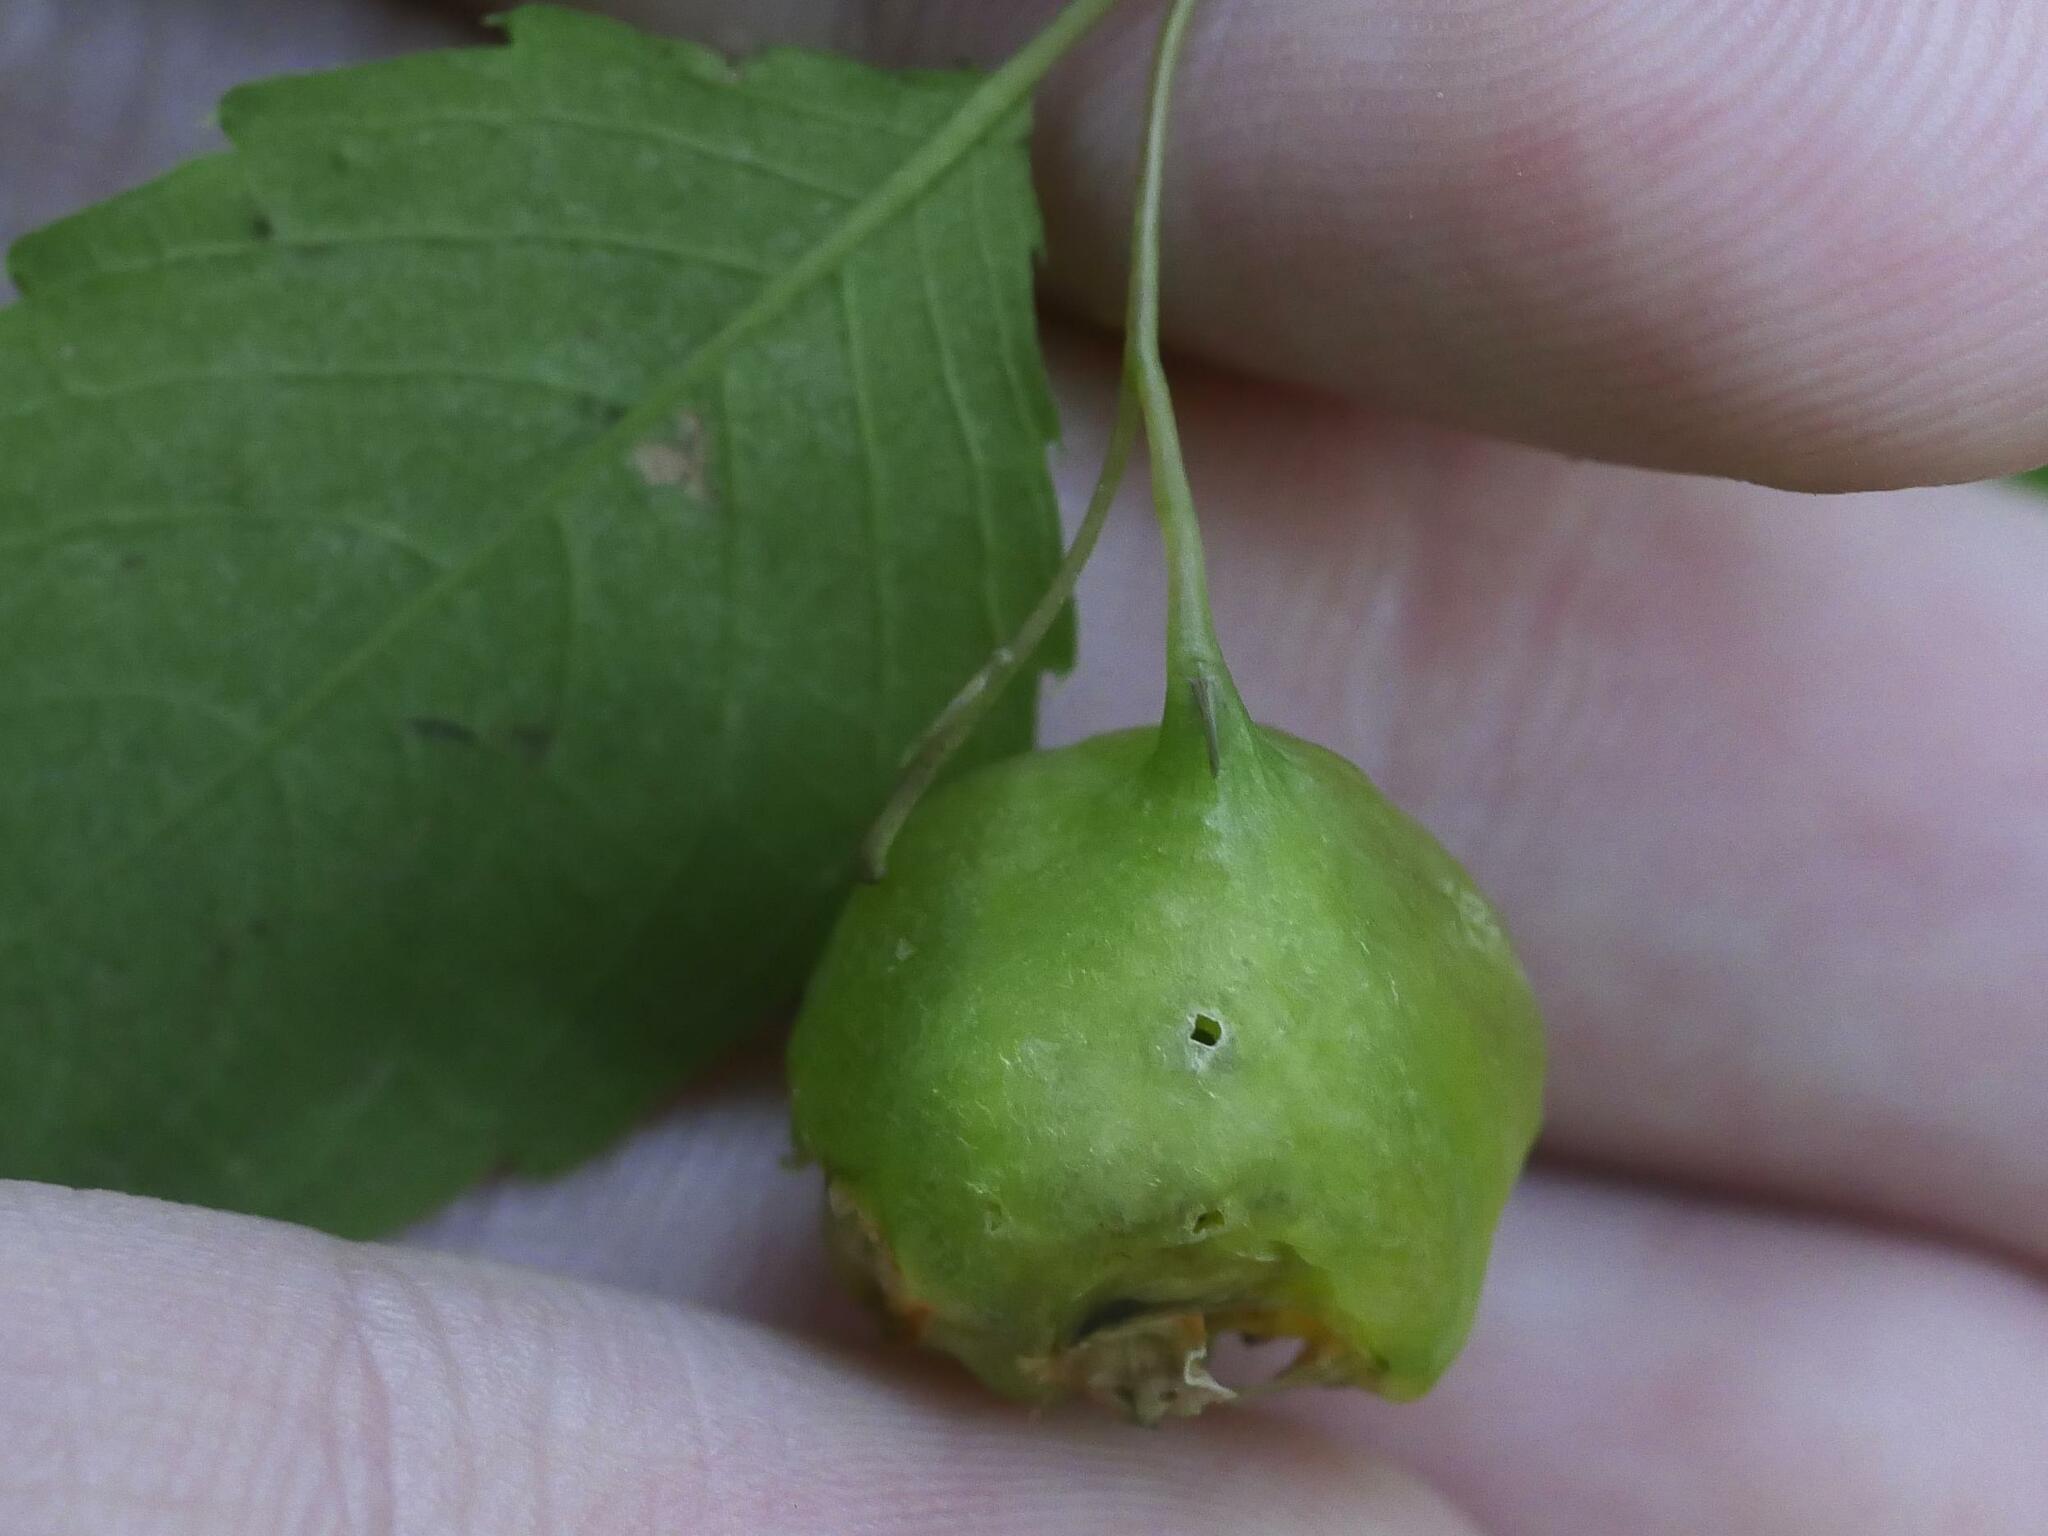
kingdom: Animalia
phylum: Arthropoda
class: Insecta
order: Diptera
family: Cecidomyiidae
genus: Schizomyia
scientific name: Schizomyia impatientis
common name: Jewelweed gall midge
